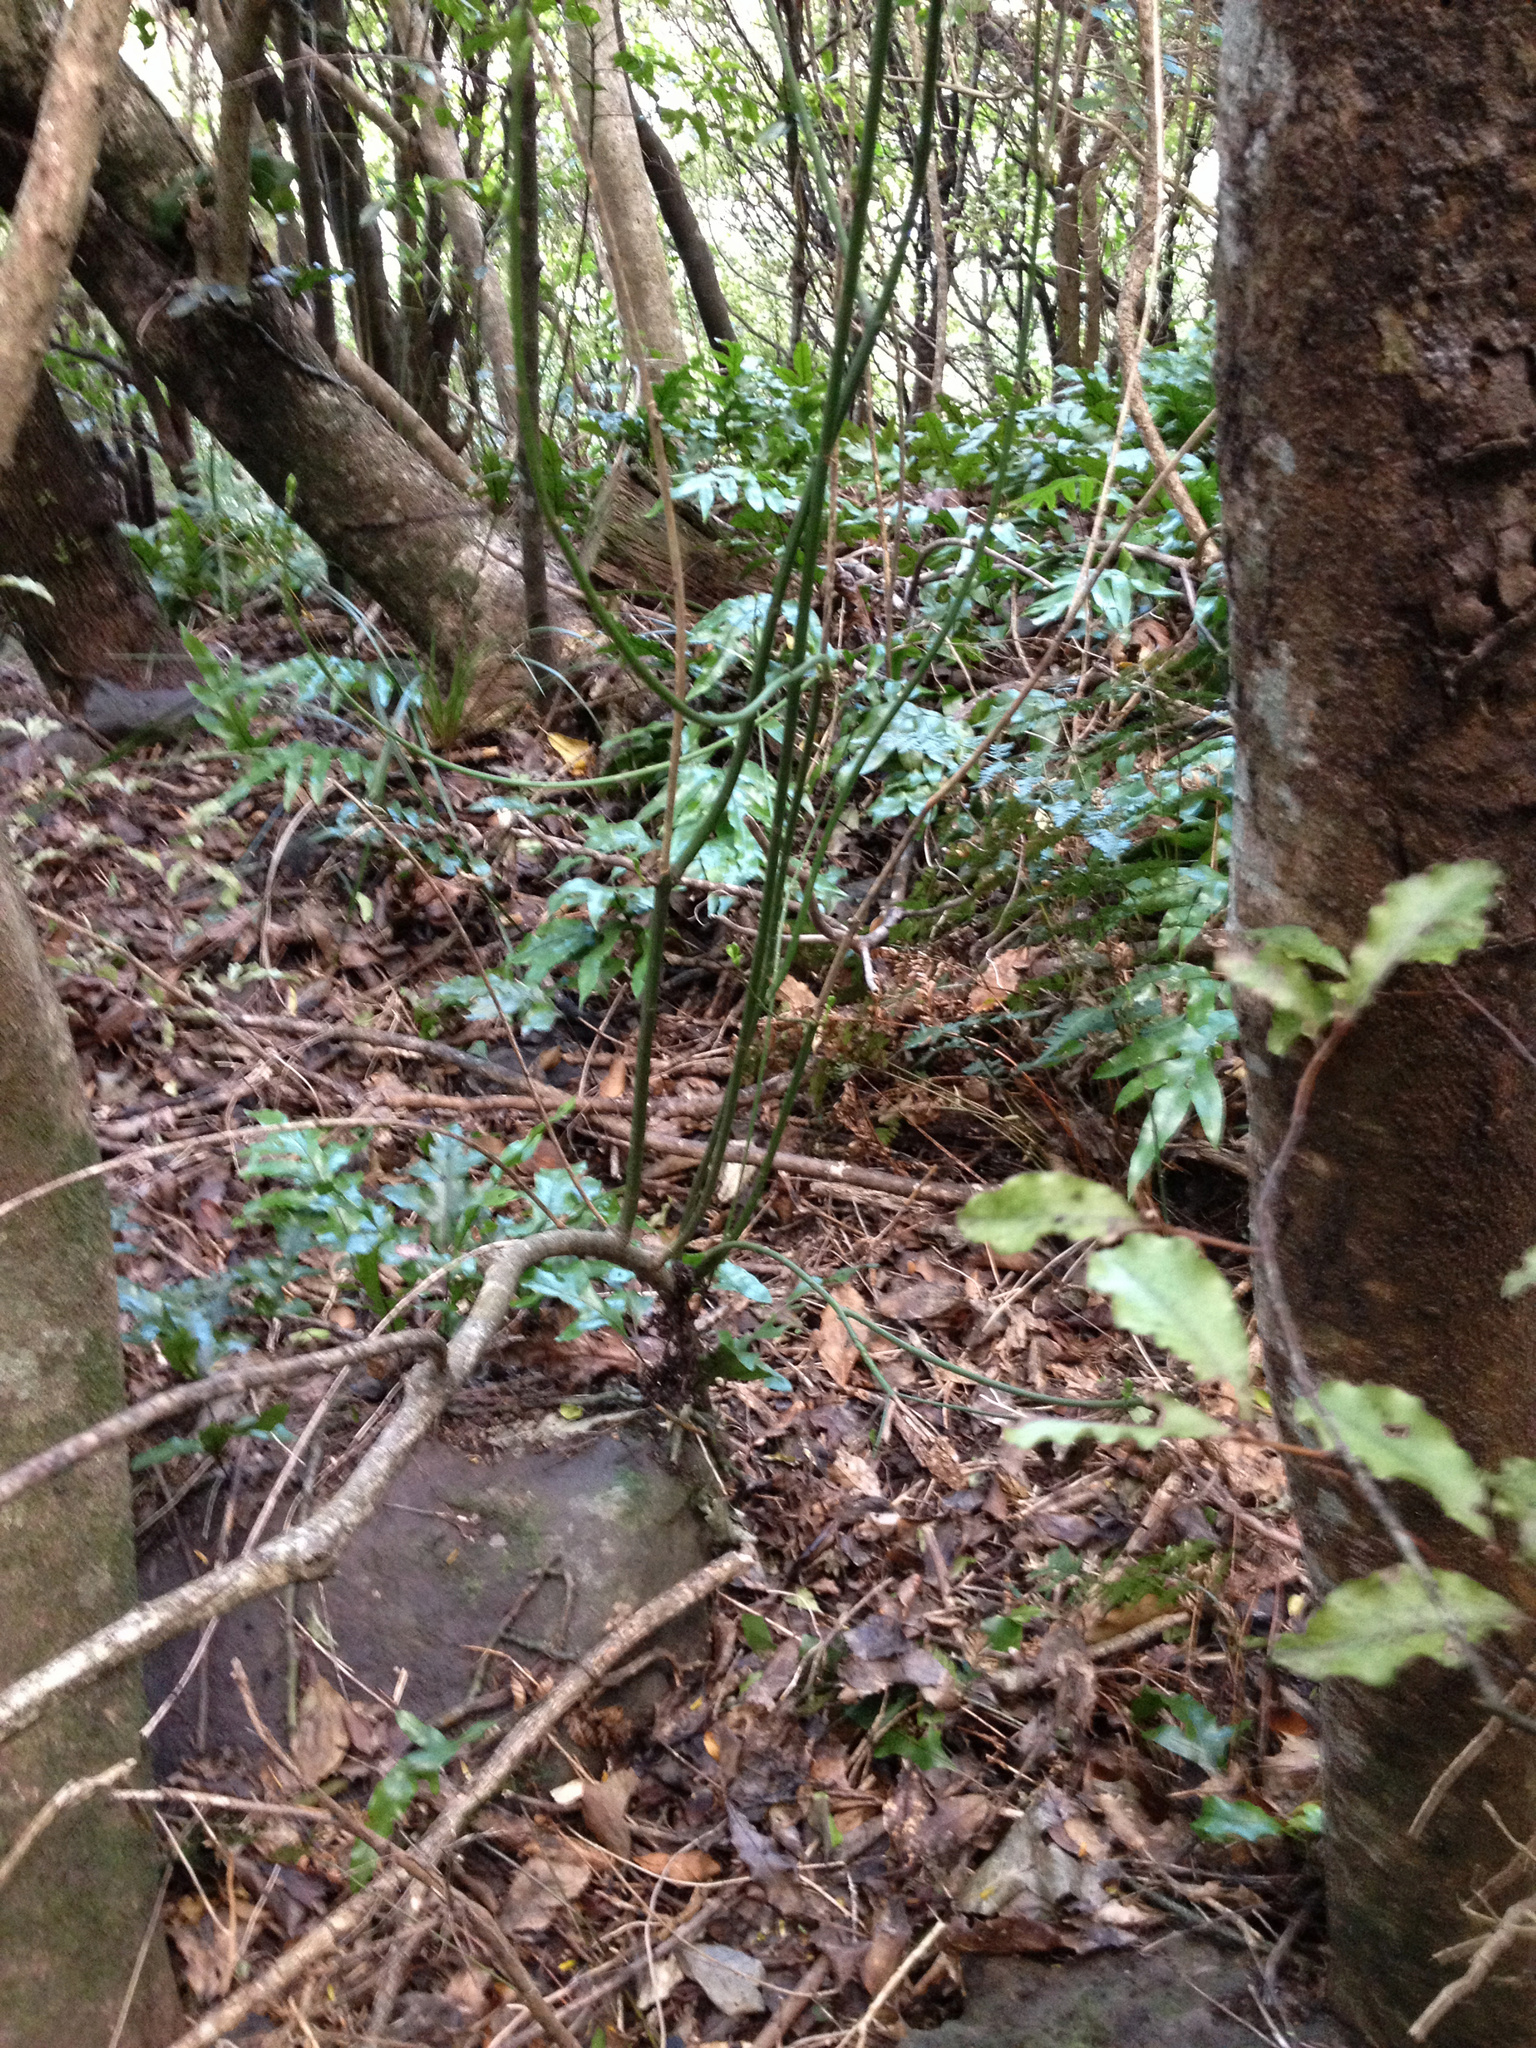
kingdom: Plantae
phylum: Tracheophyta
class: Magnoliopsida
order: Celastrales
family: Celastraceae
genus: Euonymus
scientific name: Euonymus europaeus
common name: Spindle
